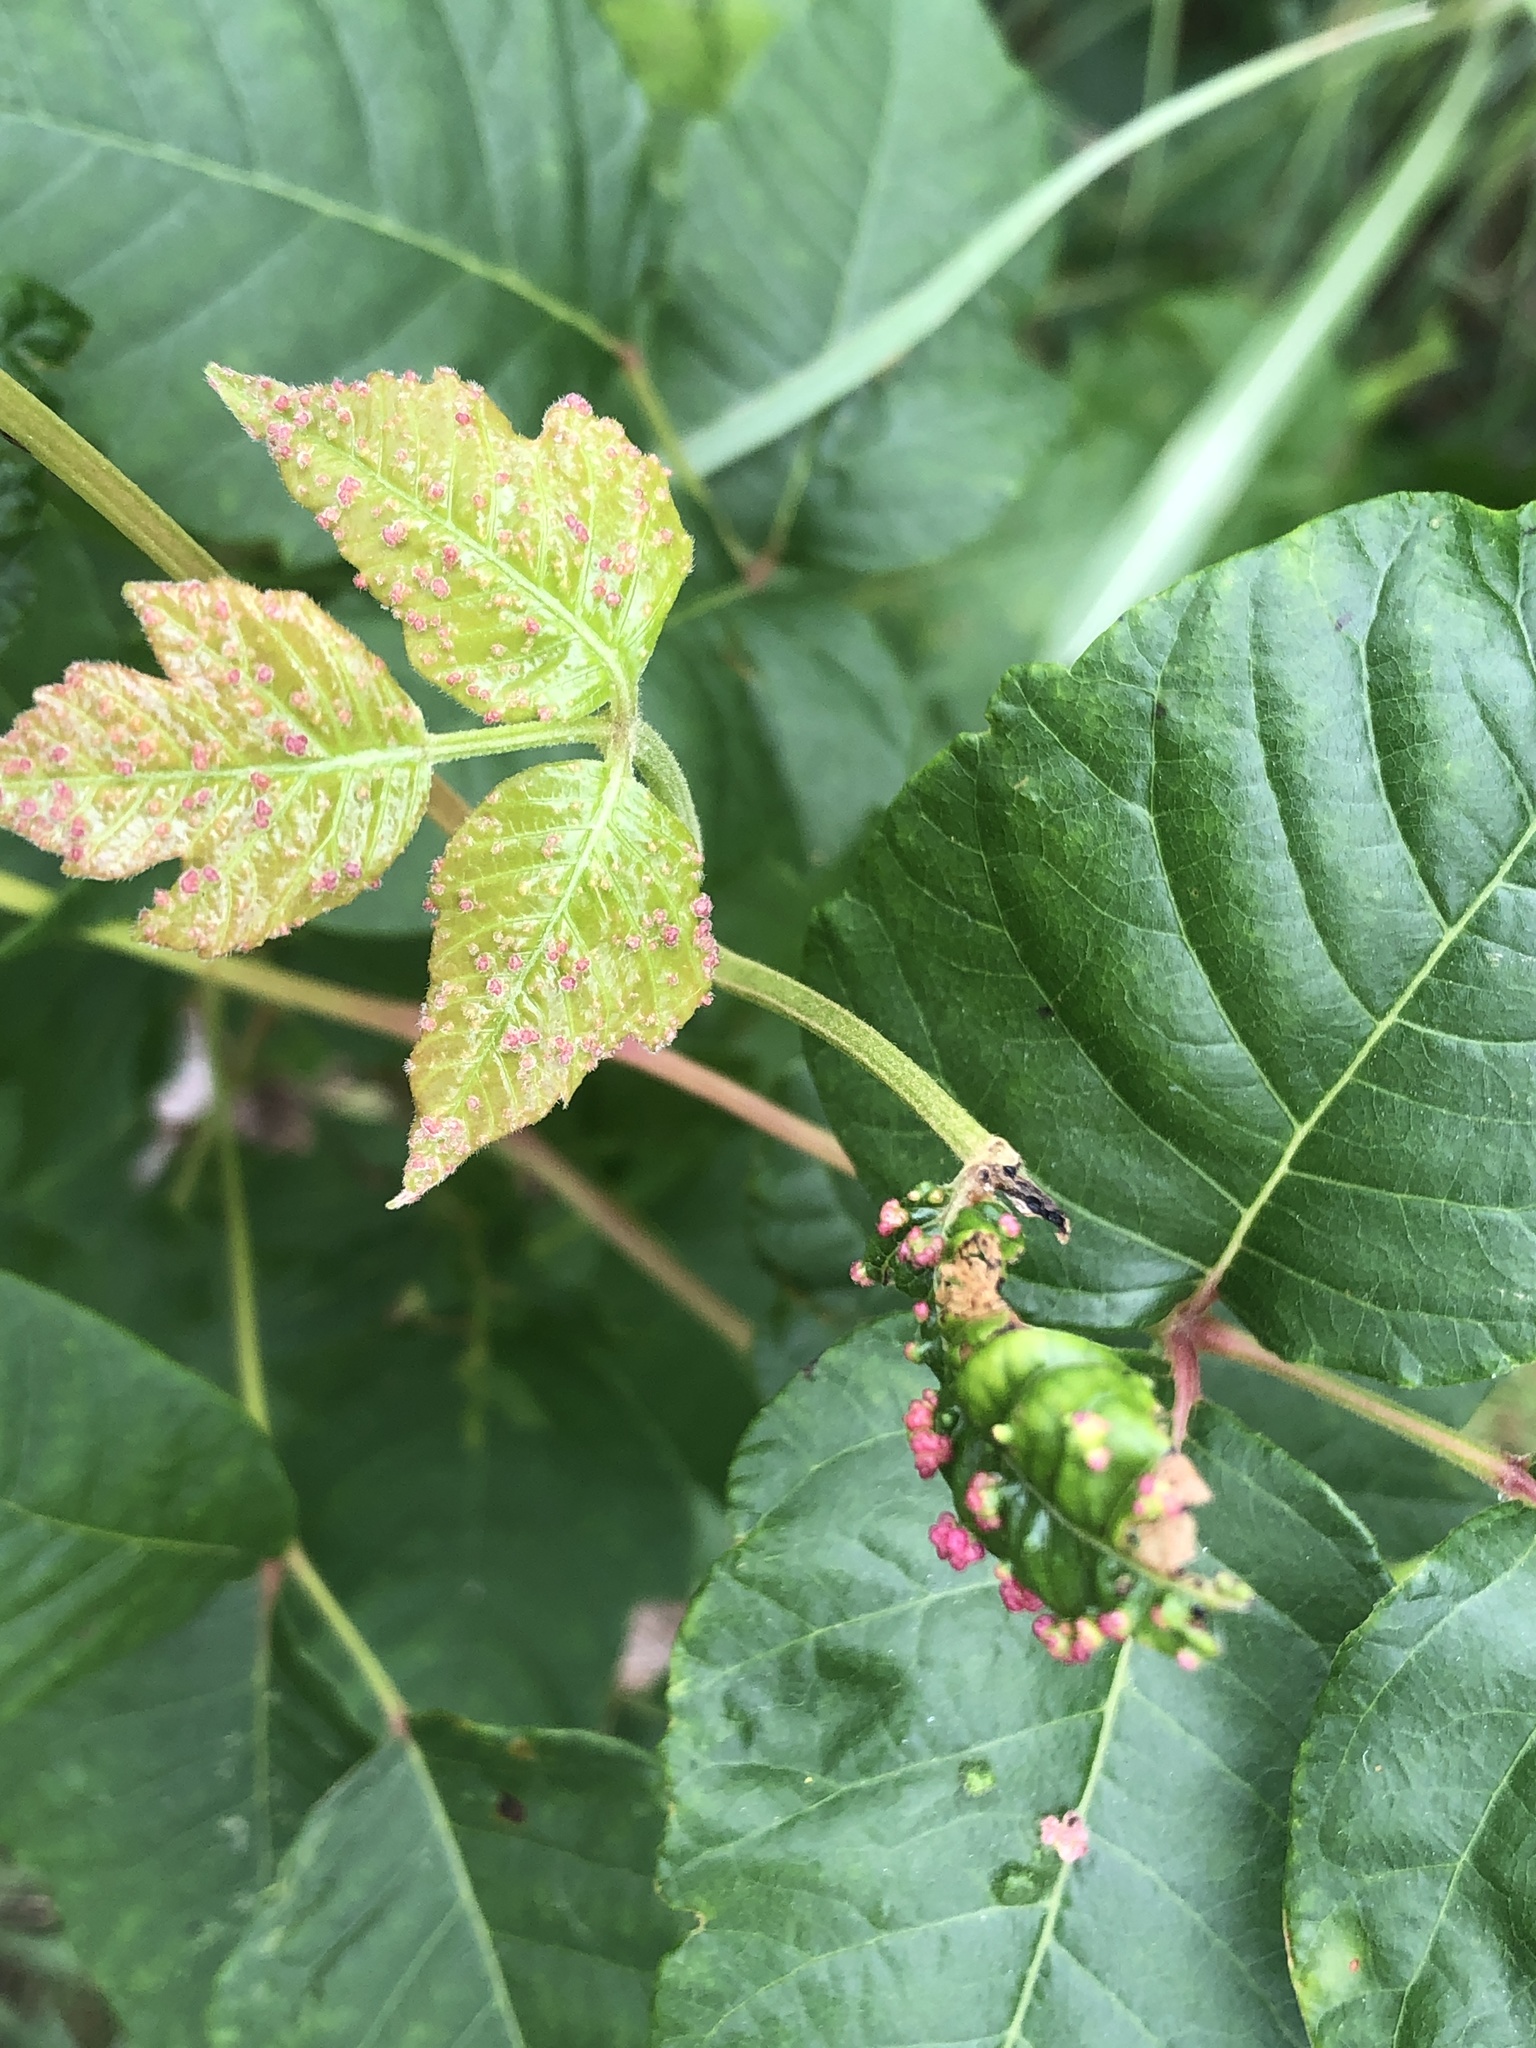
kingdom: Animalia
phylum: Arthropoda
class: Arachnida
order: Trombidiformes
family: Eriophyidae
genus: Aculops
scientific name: Aculops
